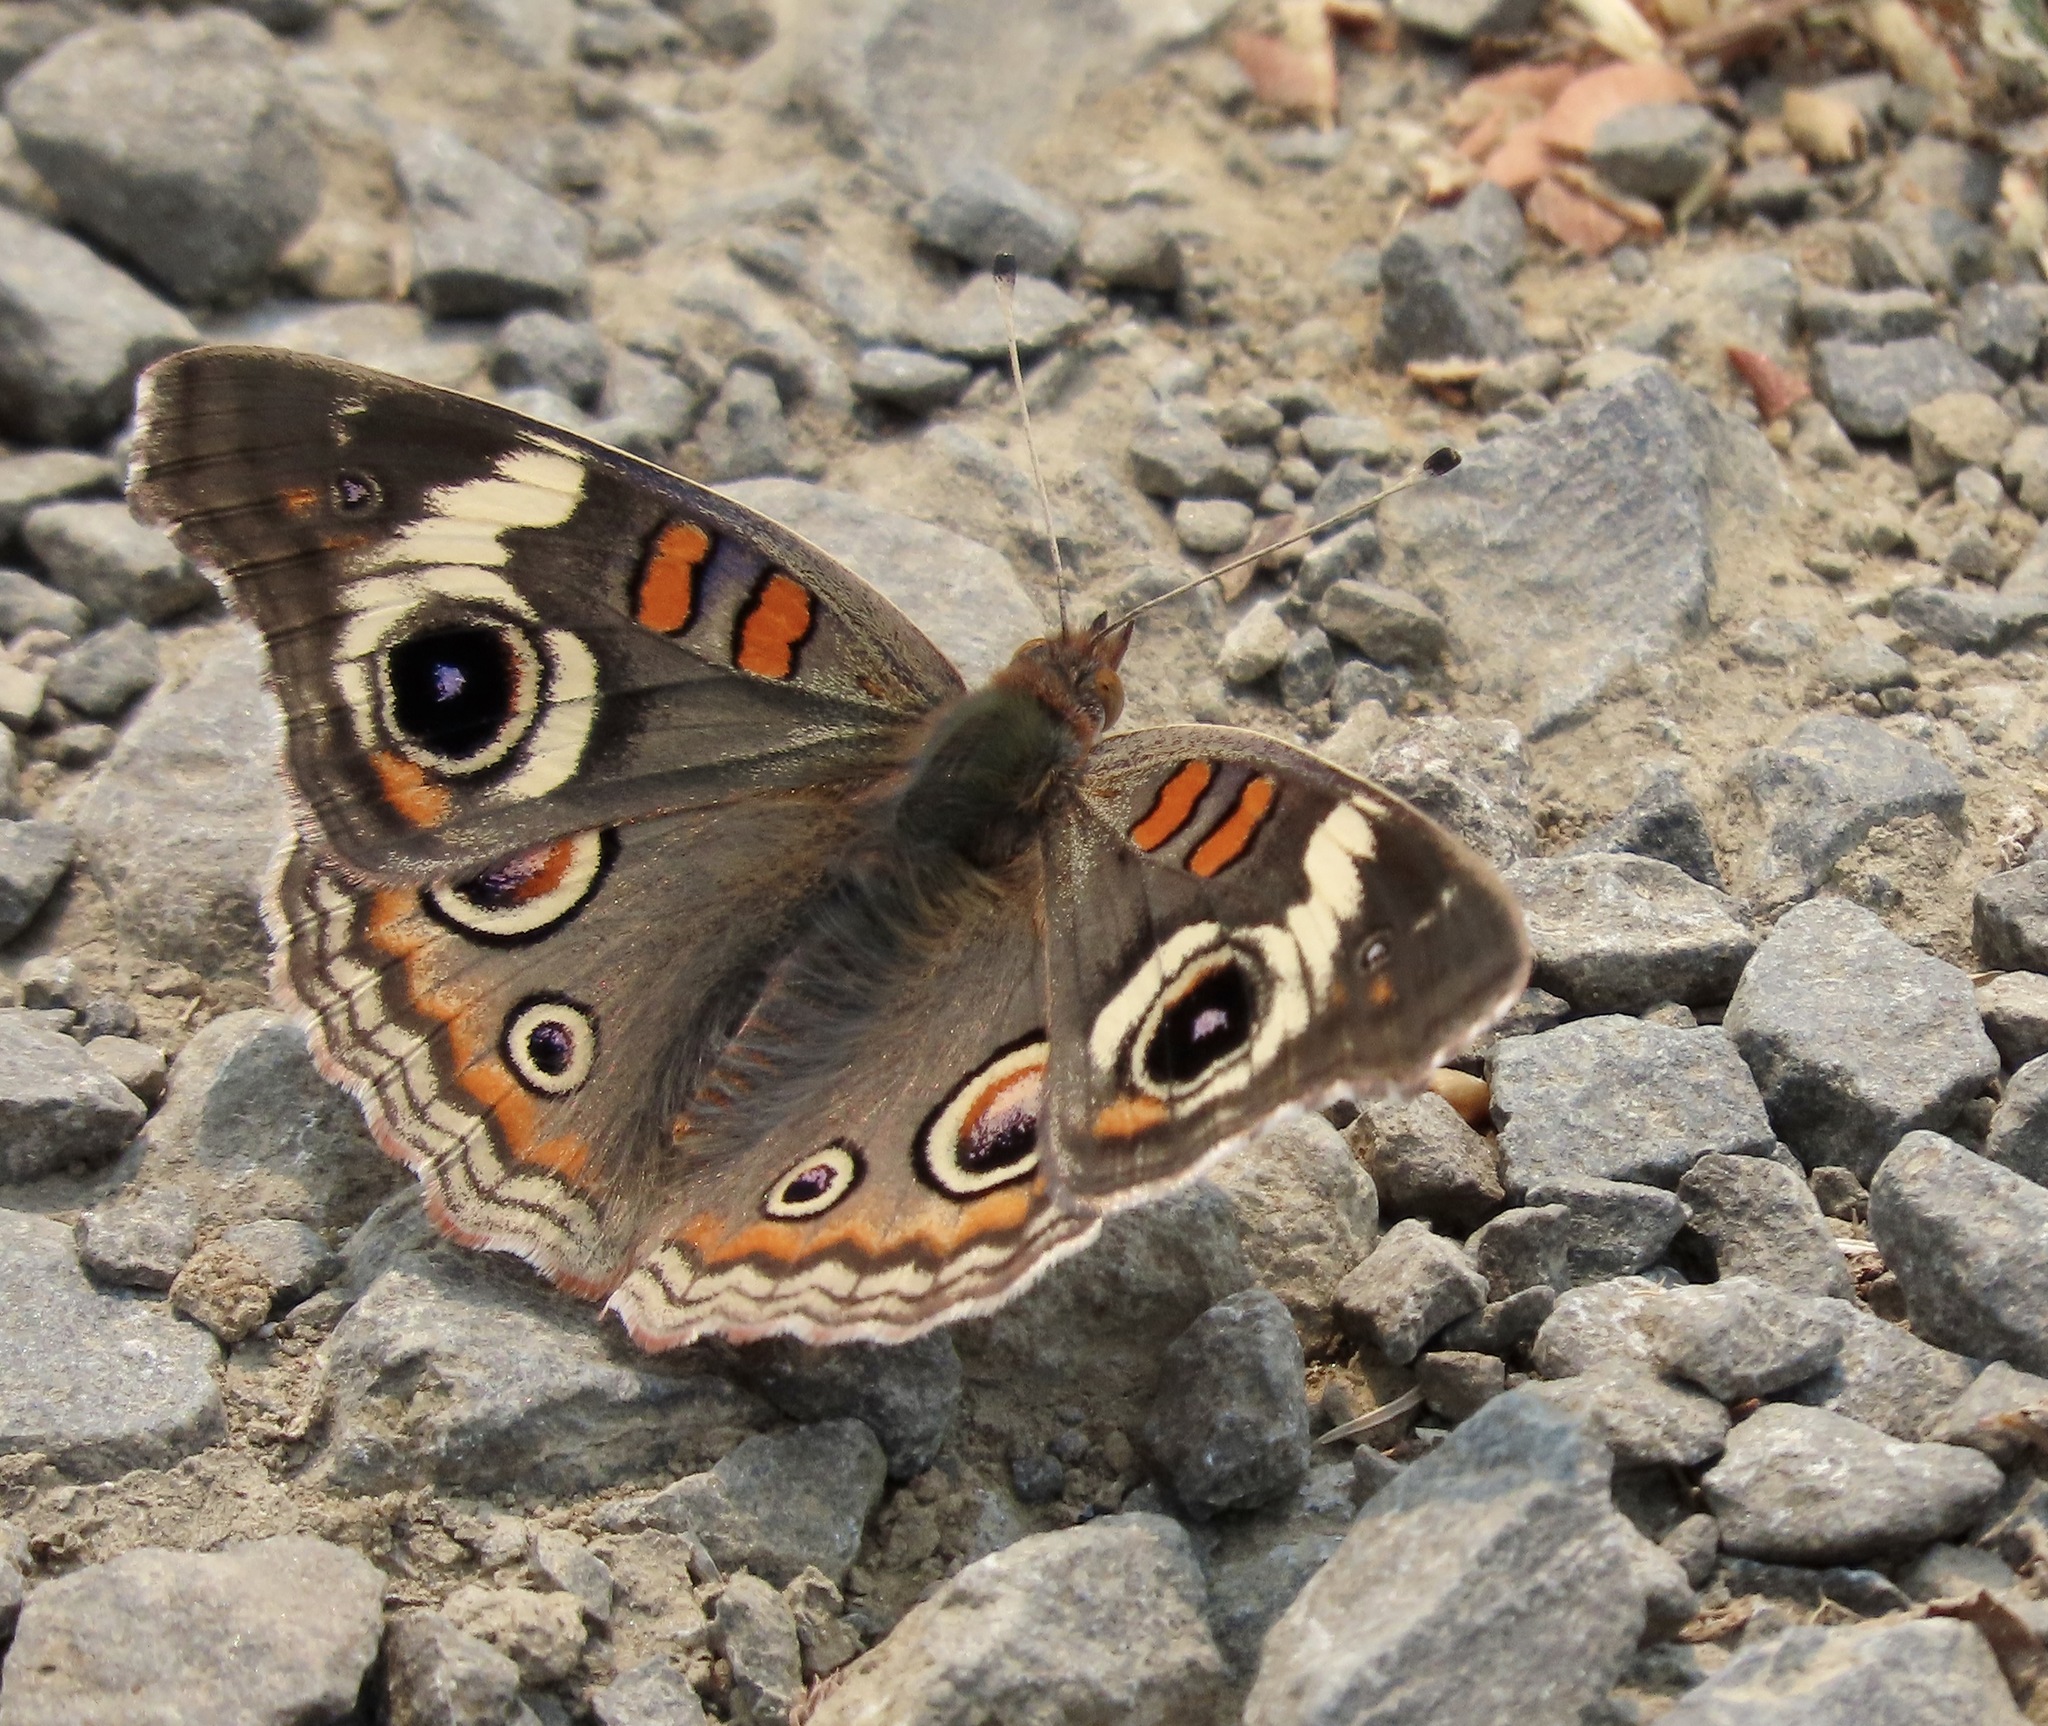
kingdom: Animalia
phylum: Arthropoda
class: Insecta
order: Lepidoptera
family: Nymphalidae
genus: Junonia
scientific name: Junonia grisea
